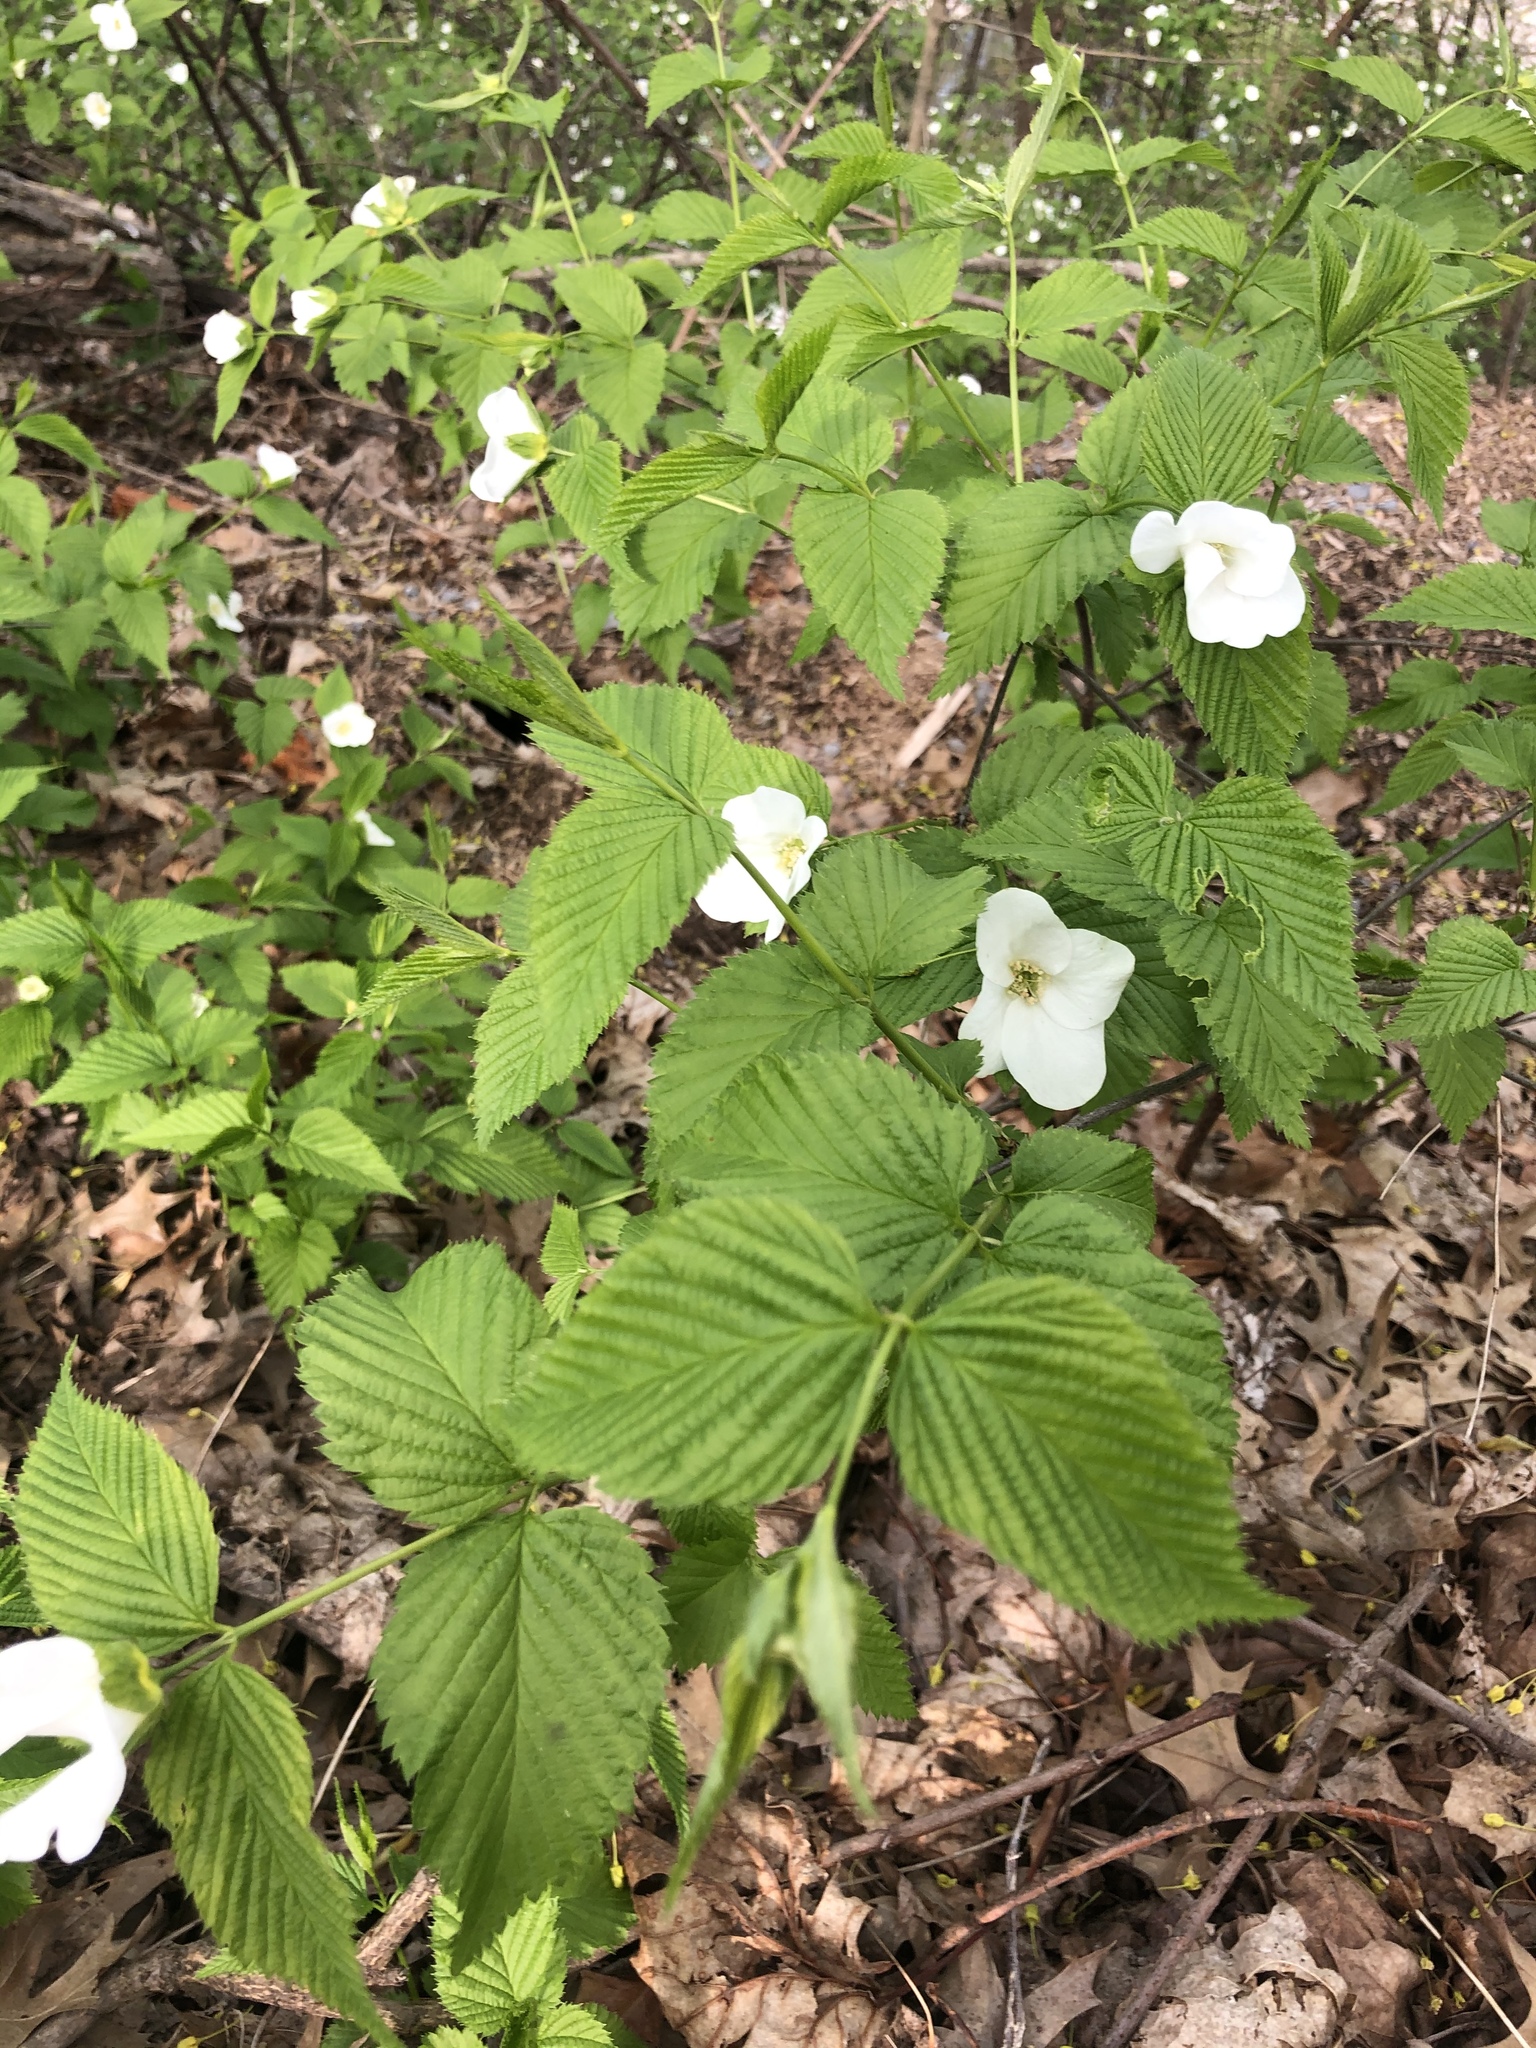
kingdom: Plantae
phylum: Tracheophyta
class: Magnoliopsida
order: Rosales
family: Rosaceae
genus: Rhodotypos
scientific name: Rhodotypos scandens
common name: Jetbead
